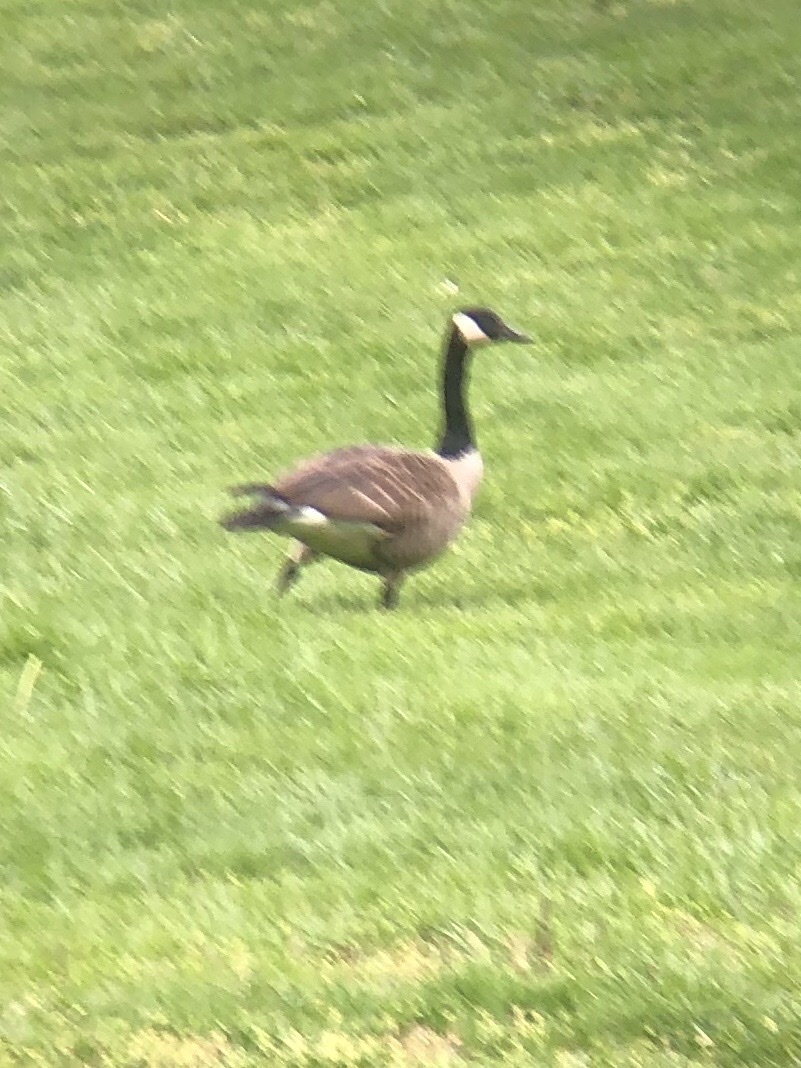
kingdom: Animalia
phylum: Chordata
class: Aves
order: Anseriformes
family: Anatidae
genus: Branta
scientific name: Branta canadensis
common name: Canada goose
